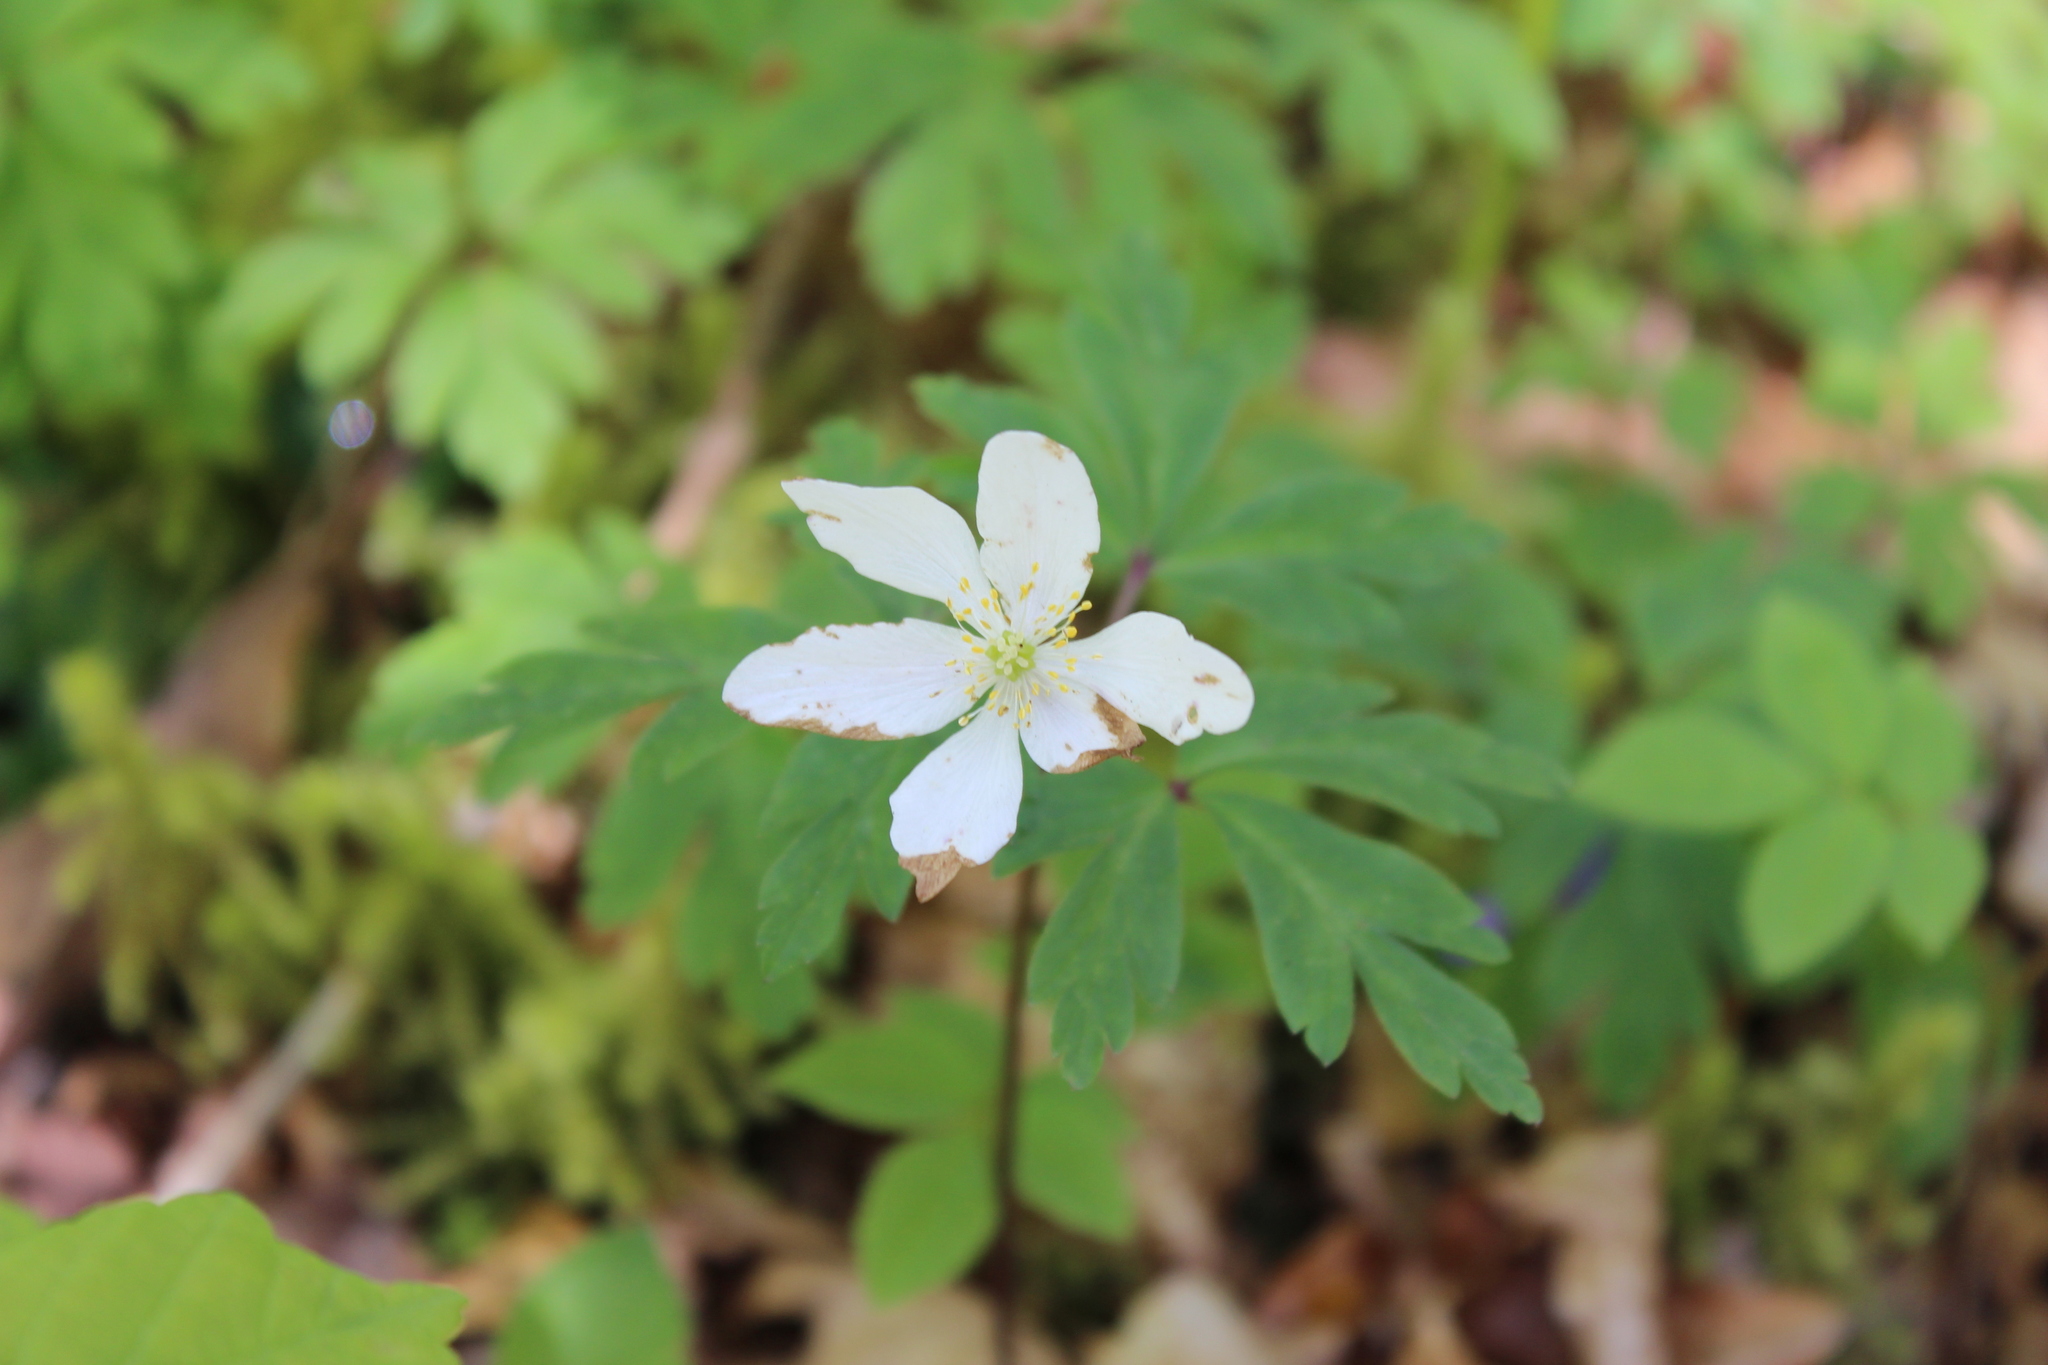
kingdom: Plantae
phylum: Tracheophyta
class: Magnoliopsida
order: Ranunculales
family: Ranunculaceae
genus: Anemone
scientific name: Anemone nemorosa
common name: Wood anemone
